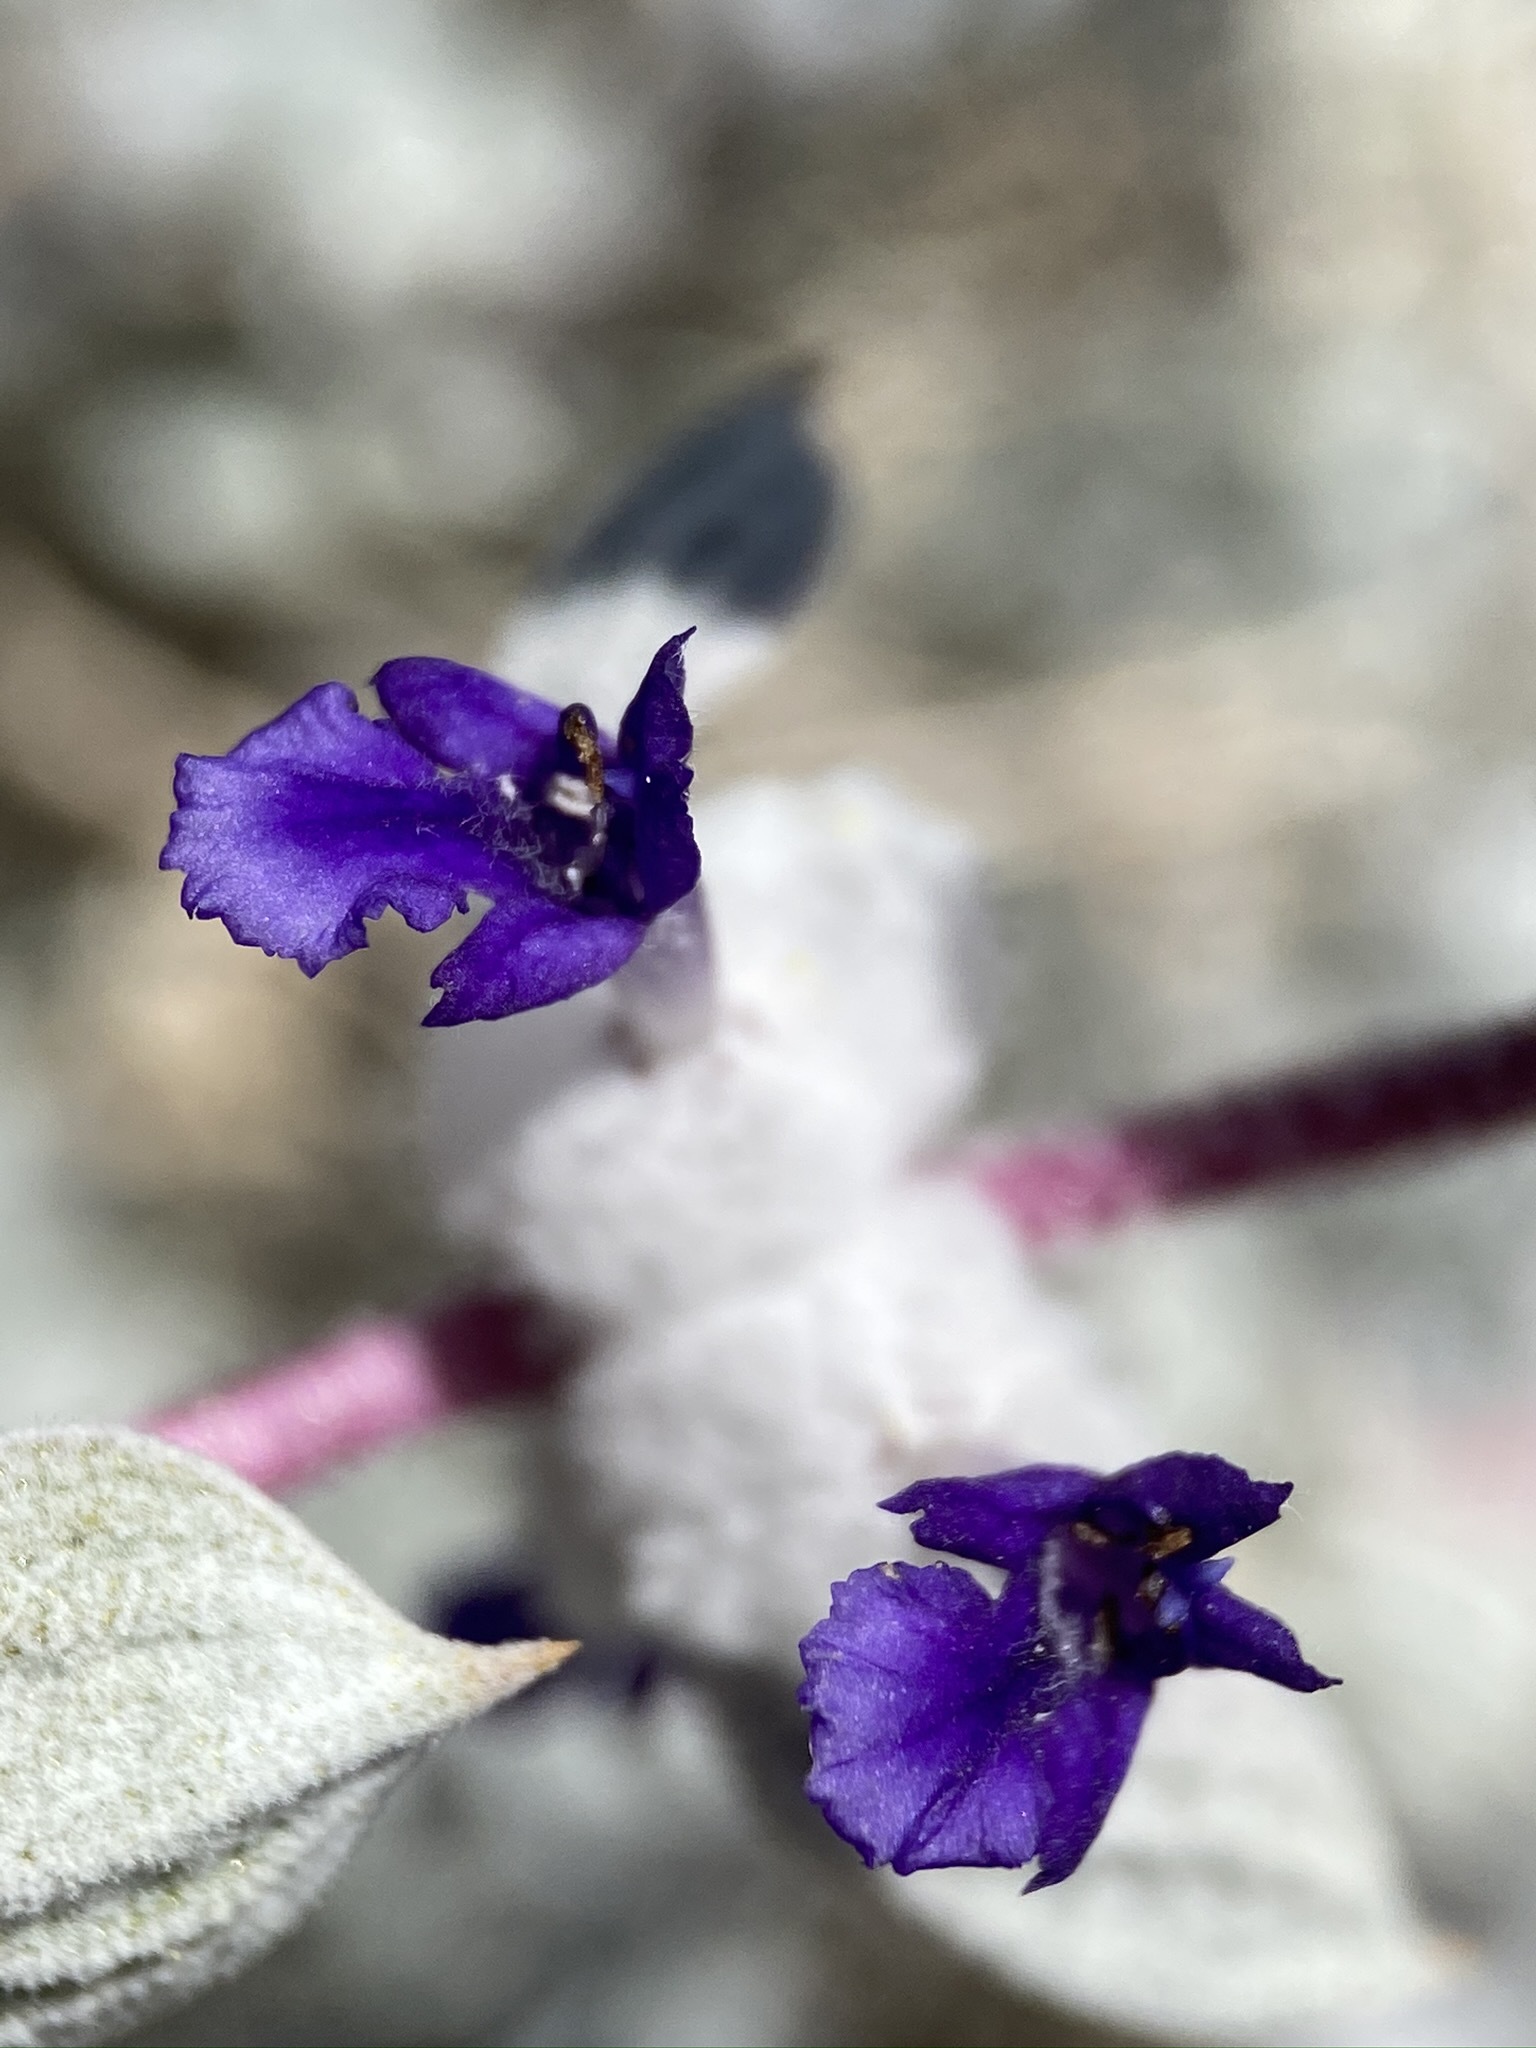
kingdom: Plantae
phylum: Tracheophyta
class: Magnoliopsida
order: Lamiales
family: Lamiaceae
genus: Salvia
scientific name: Salvia funerea
